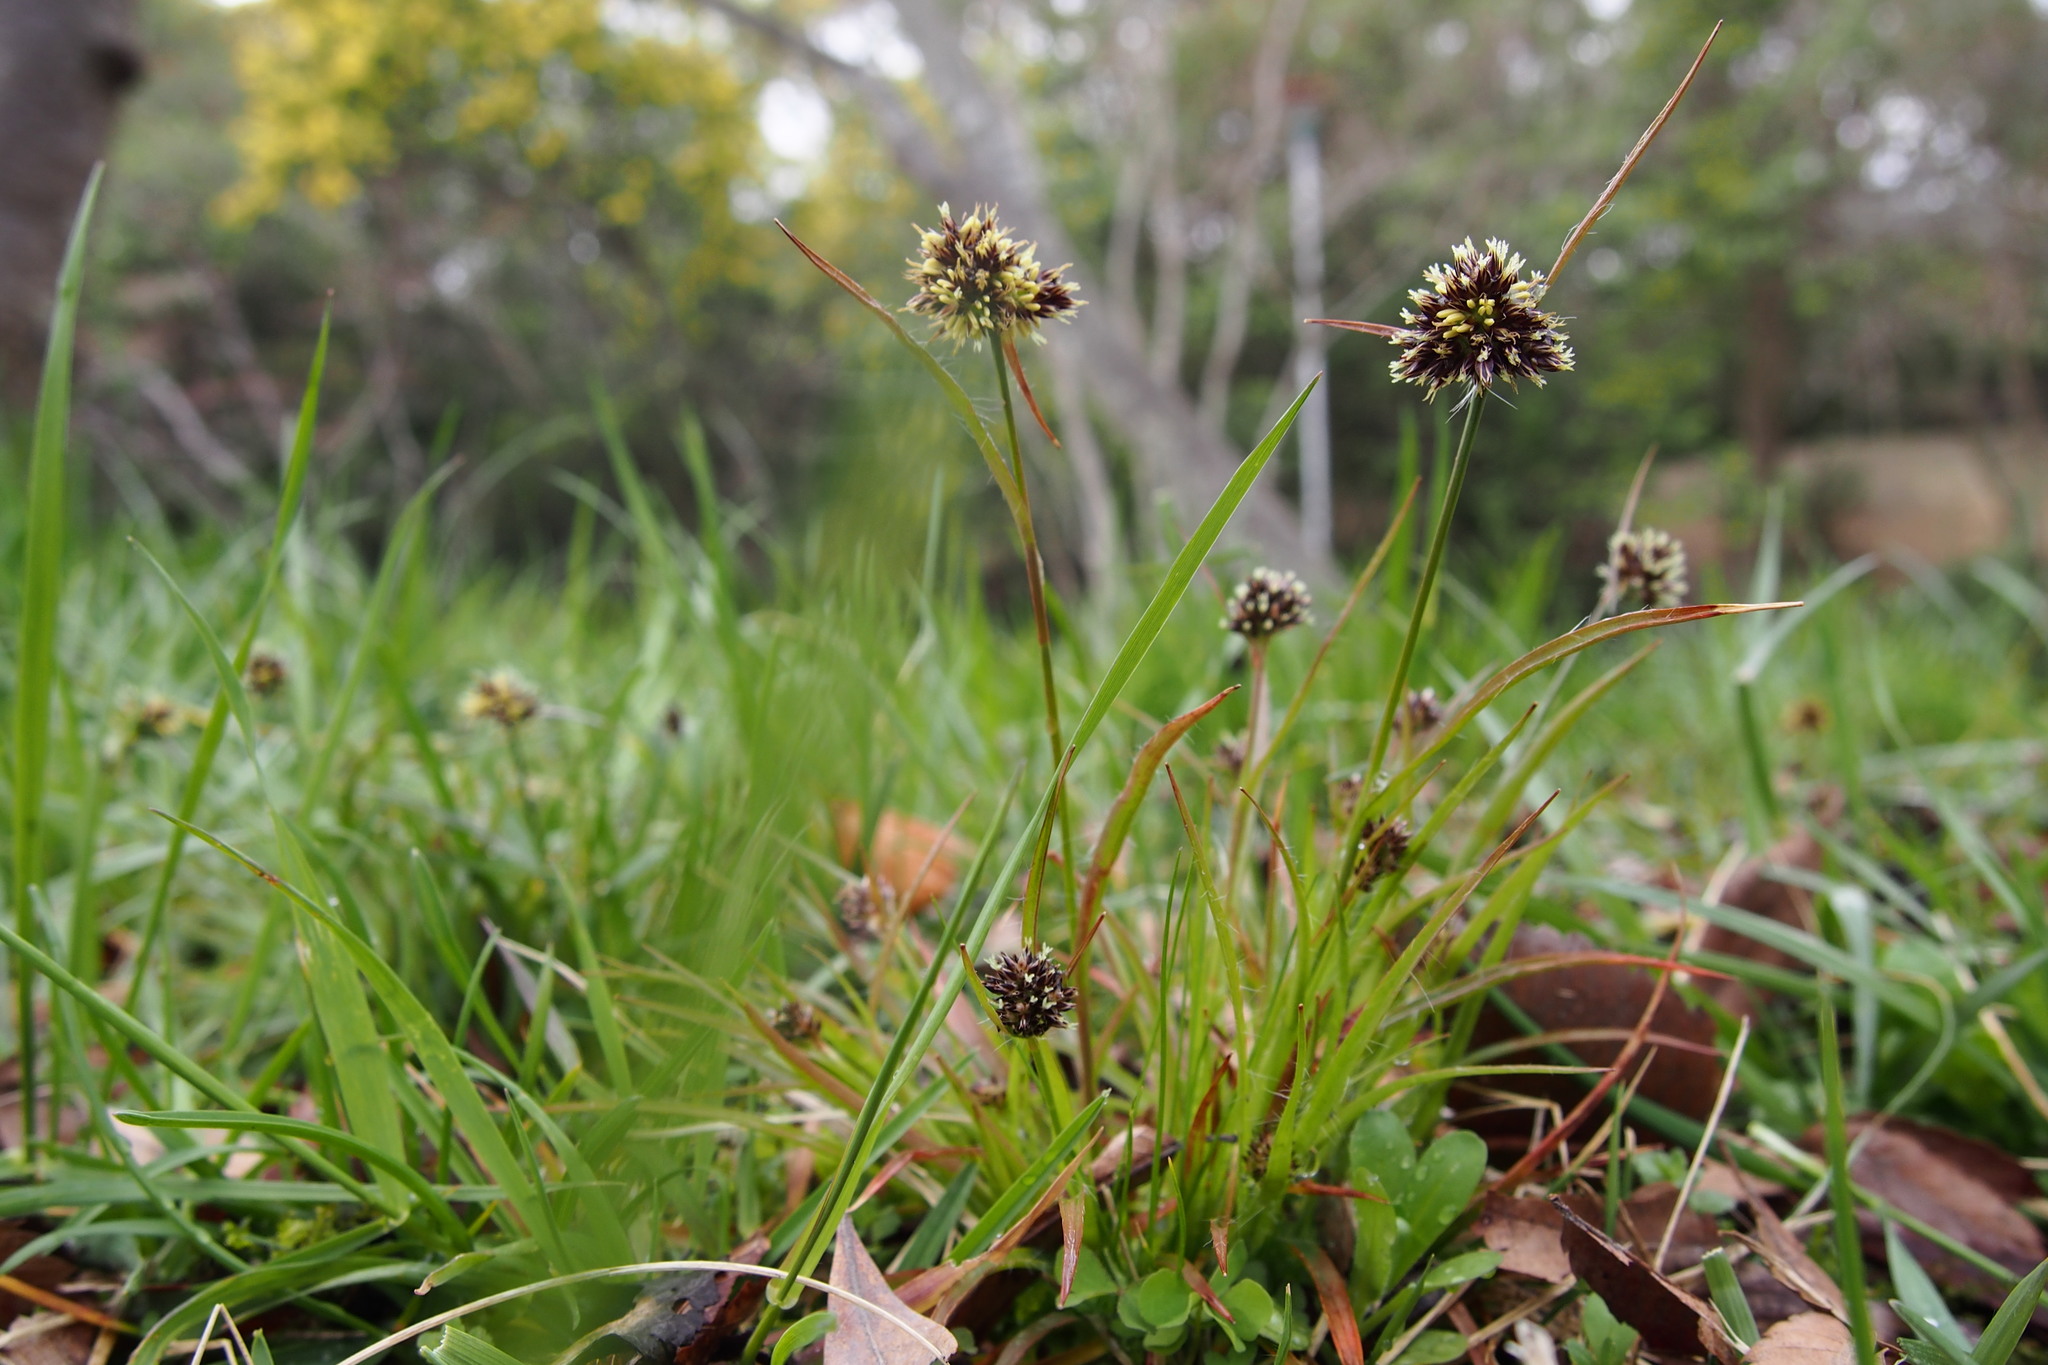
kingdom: Plantae
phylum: Tracheophyta
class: Liliopsida
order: Poales
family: Juncaceae
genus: Luzula
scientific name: Luzula capitata
